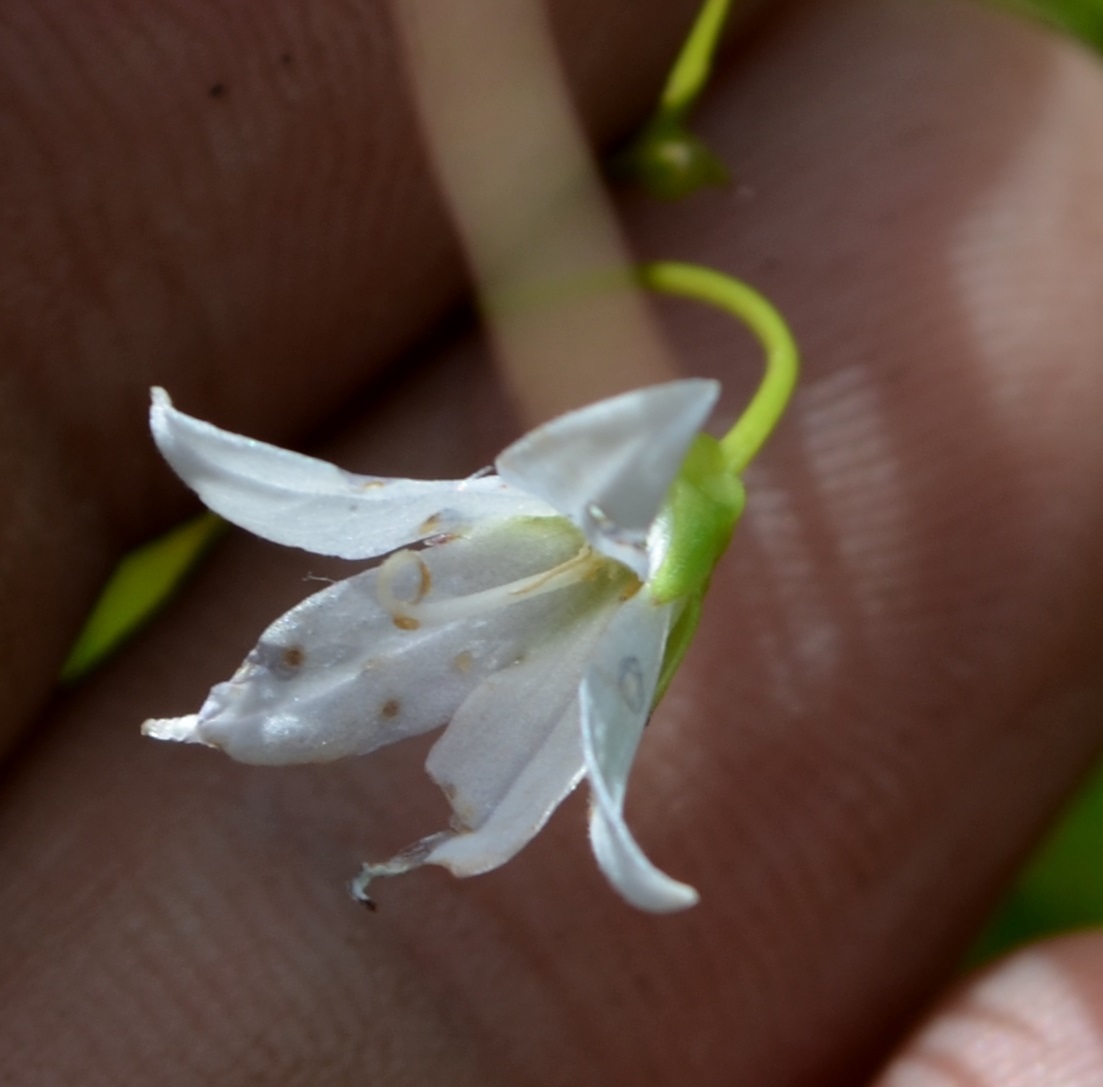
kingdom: Plantae
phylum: Tracheophyta
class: Magnoliopsida
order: Asterales
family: Campanulaceae
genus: Palustricodon
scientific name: Palustricodon aparinoides
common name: Bedstraw bellflower
